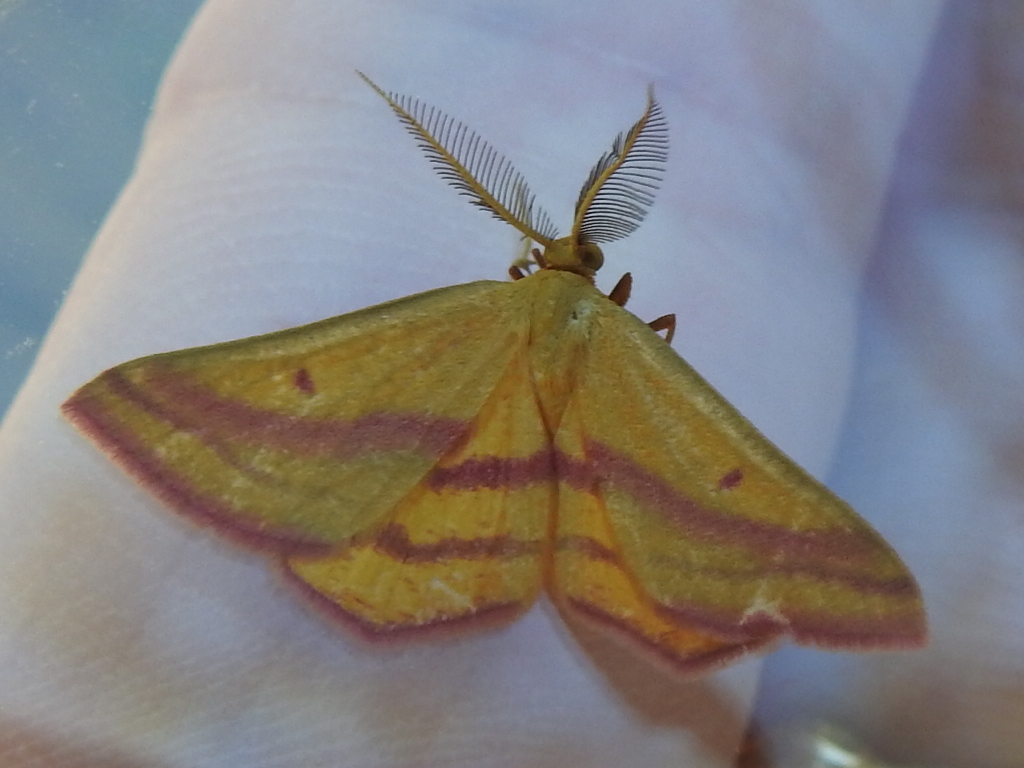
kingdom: Animalia
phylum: Arthropoda
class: Insecta
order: Lepidoptera
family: Geometridae
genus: Haematopis
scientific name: Haematopis grataria
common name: Chickweed geometer
